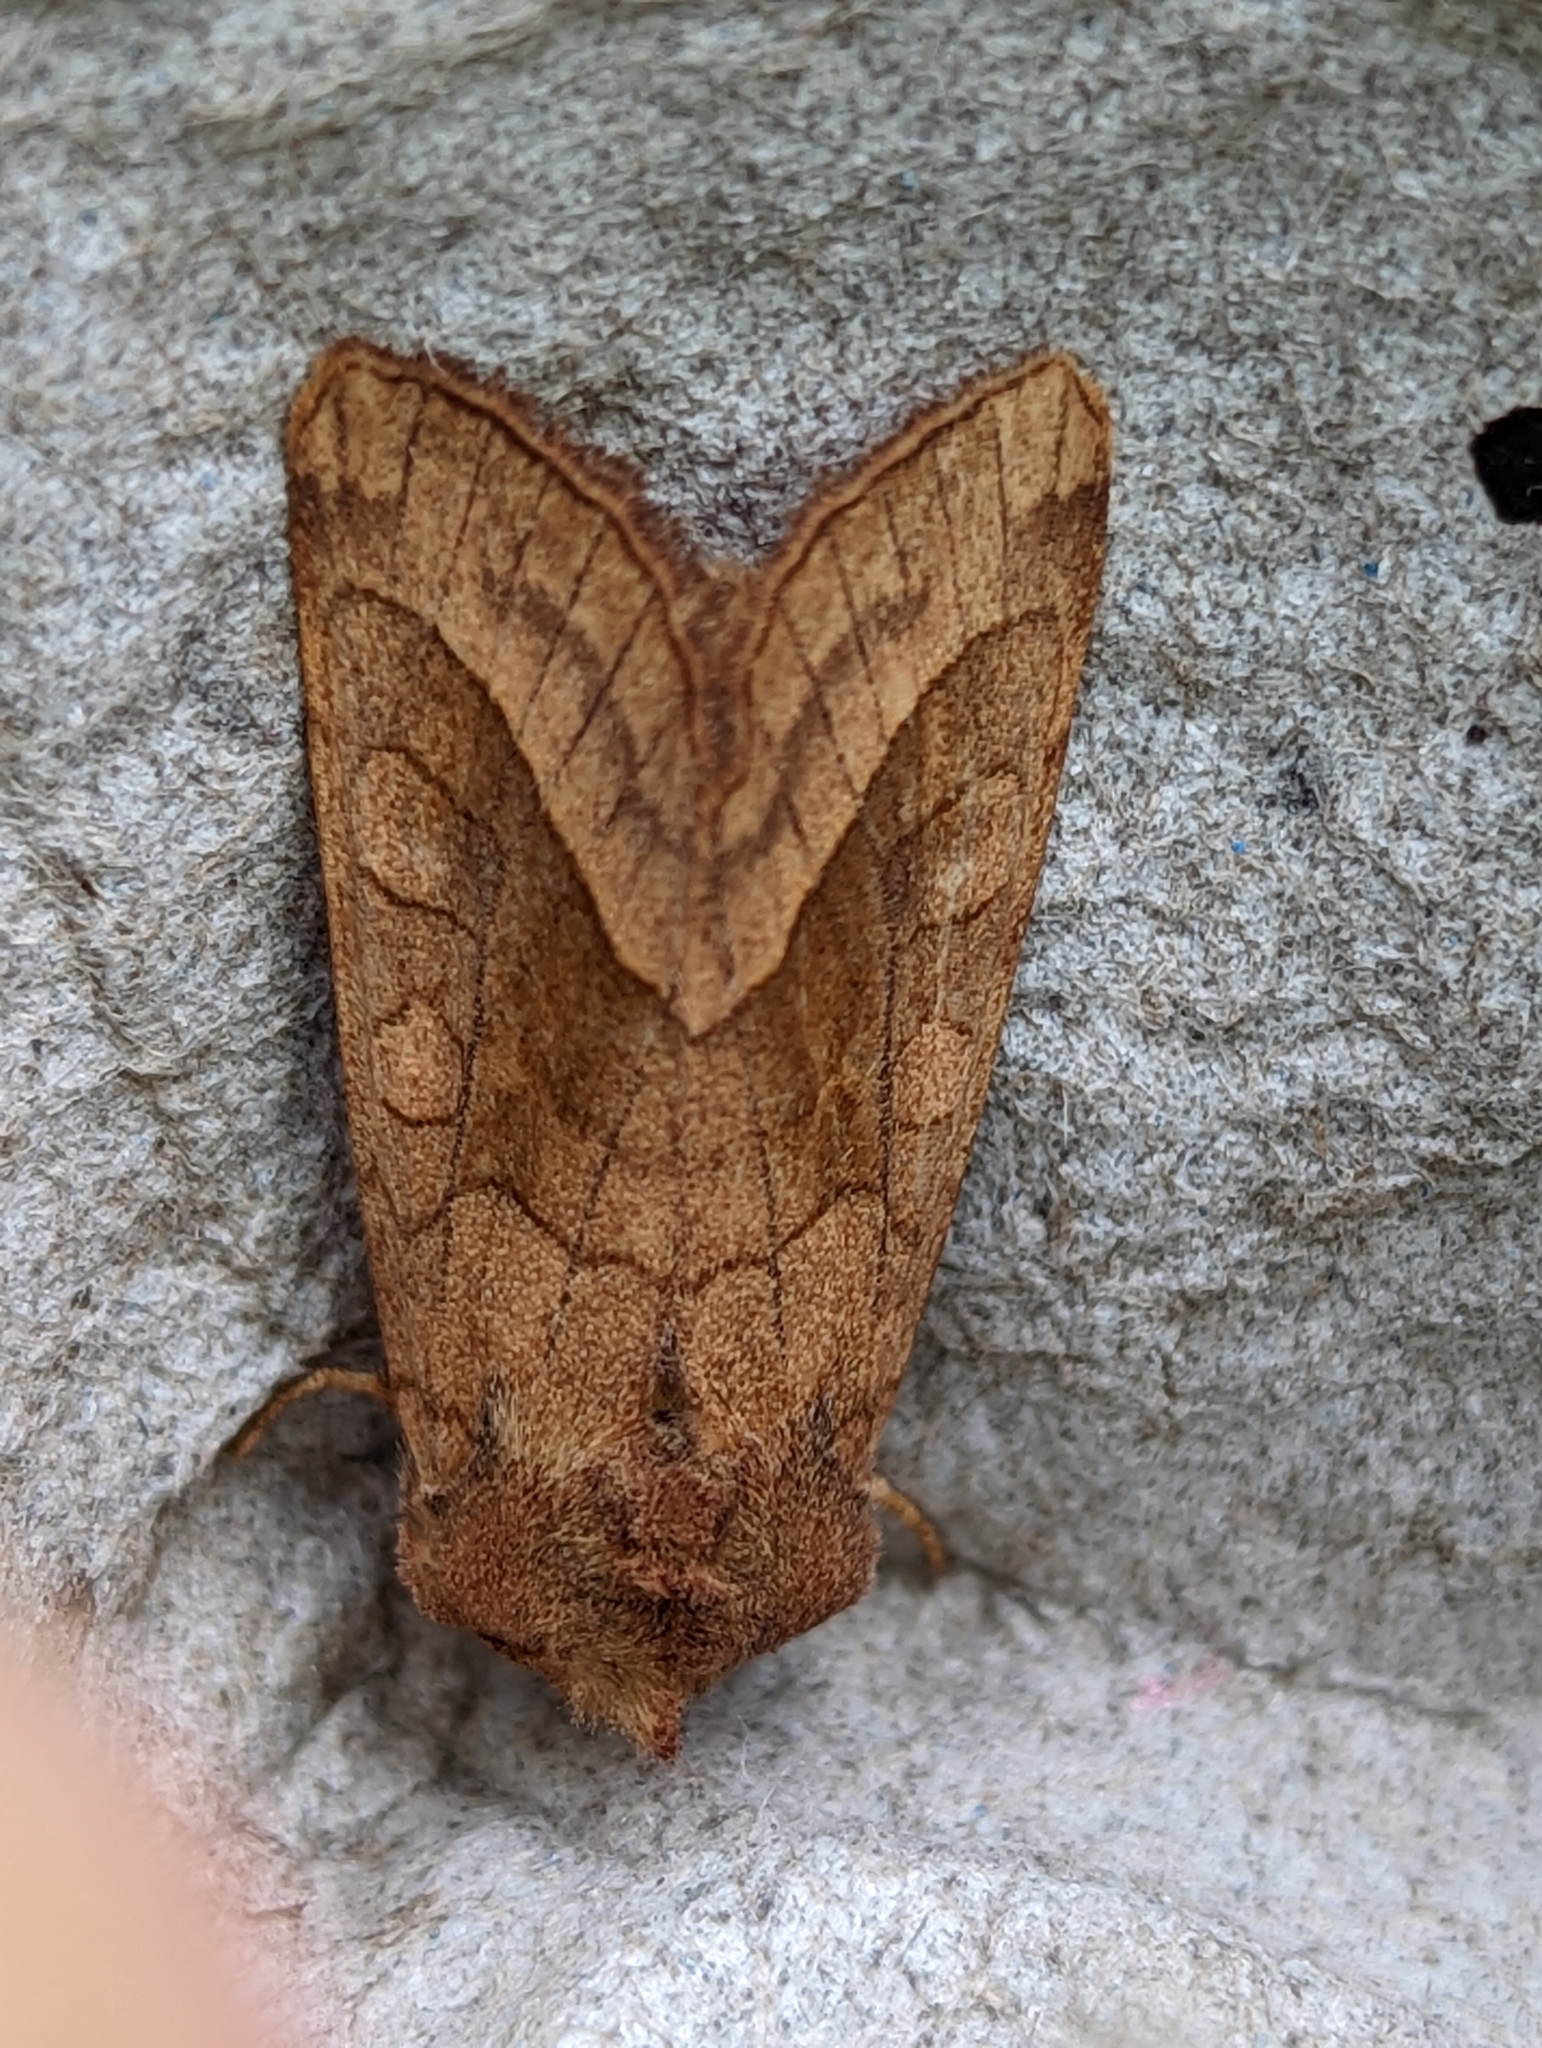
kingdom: Animalia
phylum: Arthropoda
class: Insecta
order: Lepidoptera
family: Noctuidae
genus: Hydraecia
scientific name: Hydraecia micacea
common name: Rosy rustic
